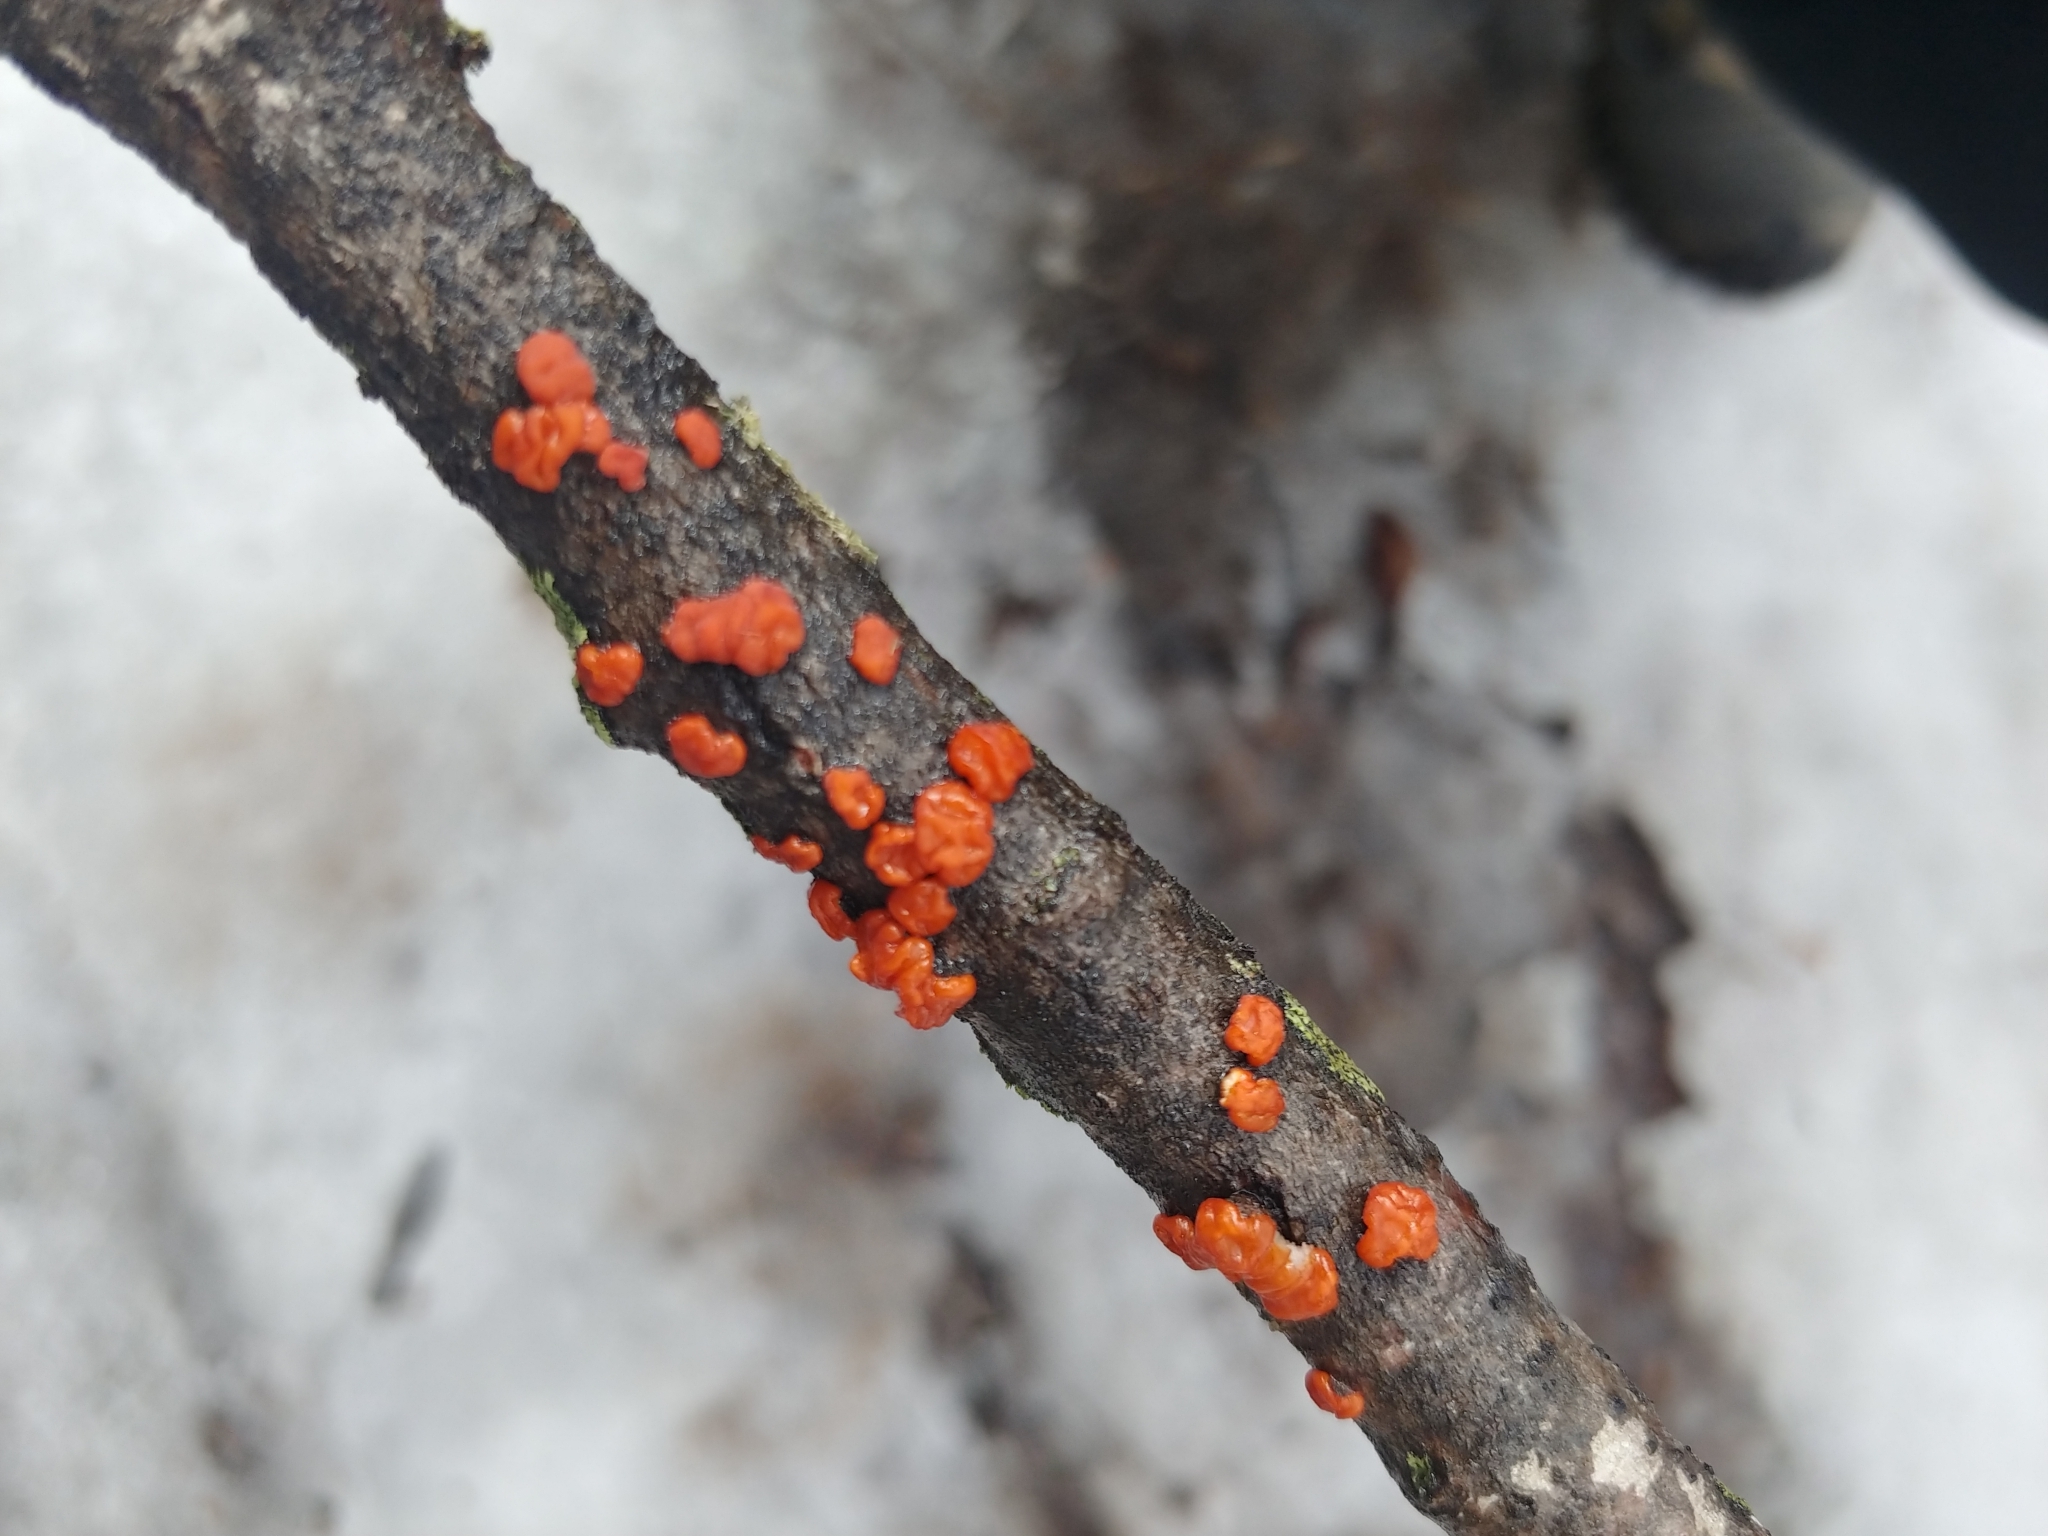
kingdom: Fungi
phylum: Basidiomycota
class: Agaricomycetes
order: Russulales
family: Peniophoraceae
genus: Peniophora
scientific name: Peniophora rufa
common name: Red tree brain fungus
